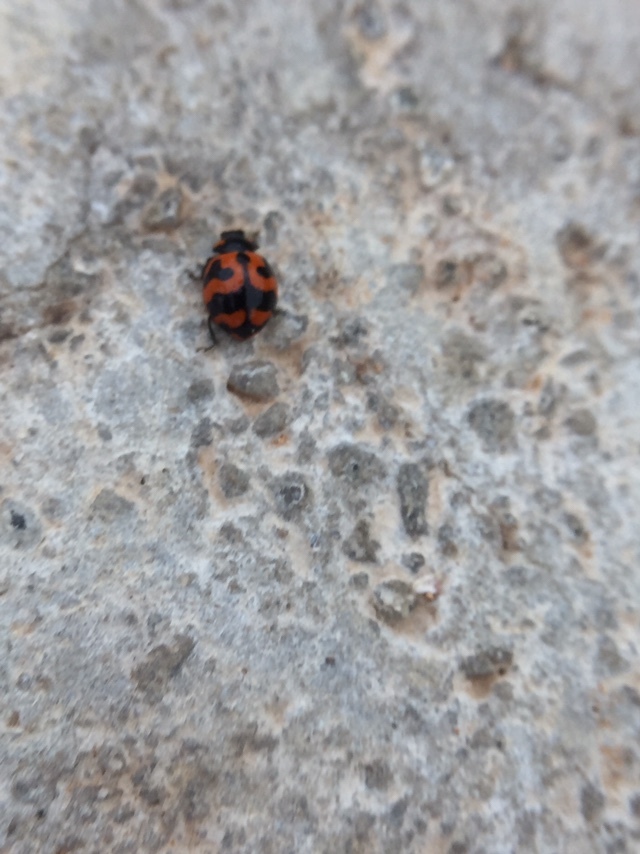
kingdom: Animalia
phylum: Arthropoda
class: Insecta
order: Coleoptera
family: Coccinellidae
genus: Coccinella
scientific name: Coccinella transversalis
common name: Transverse lady beetle
